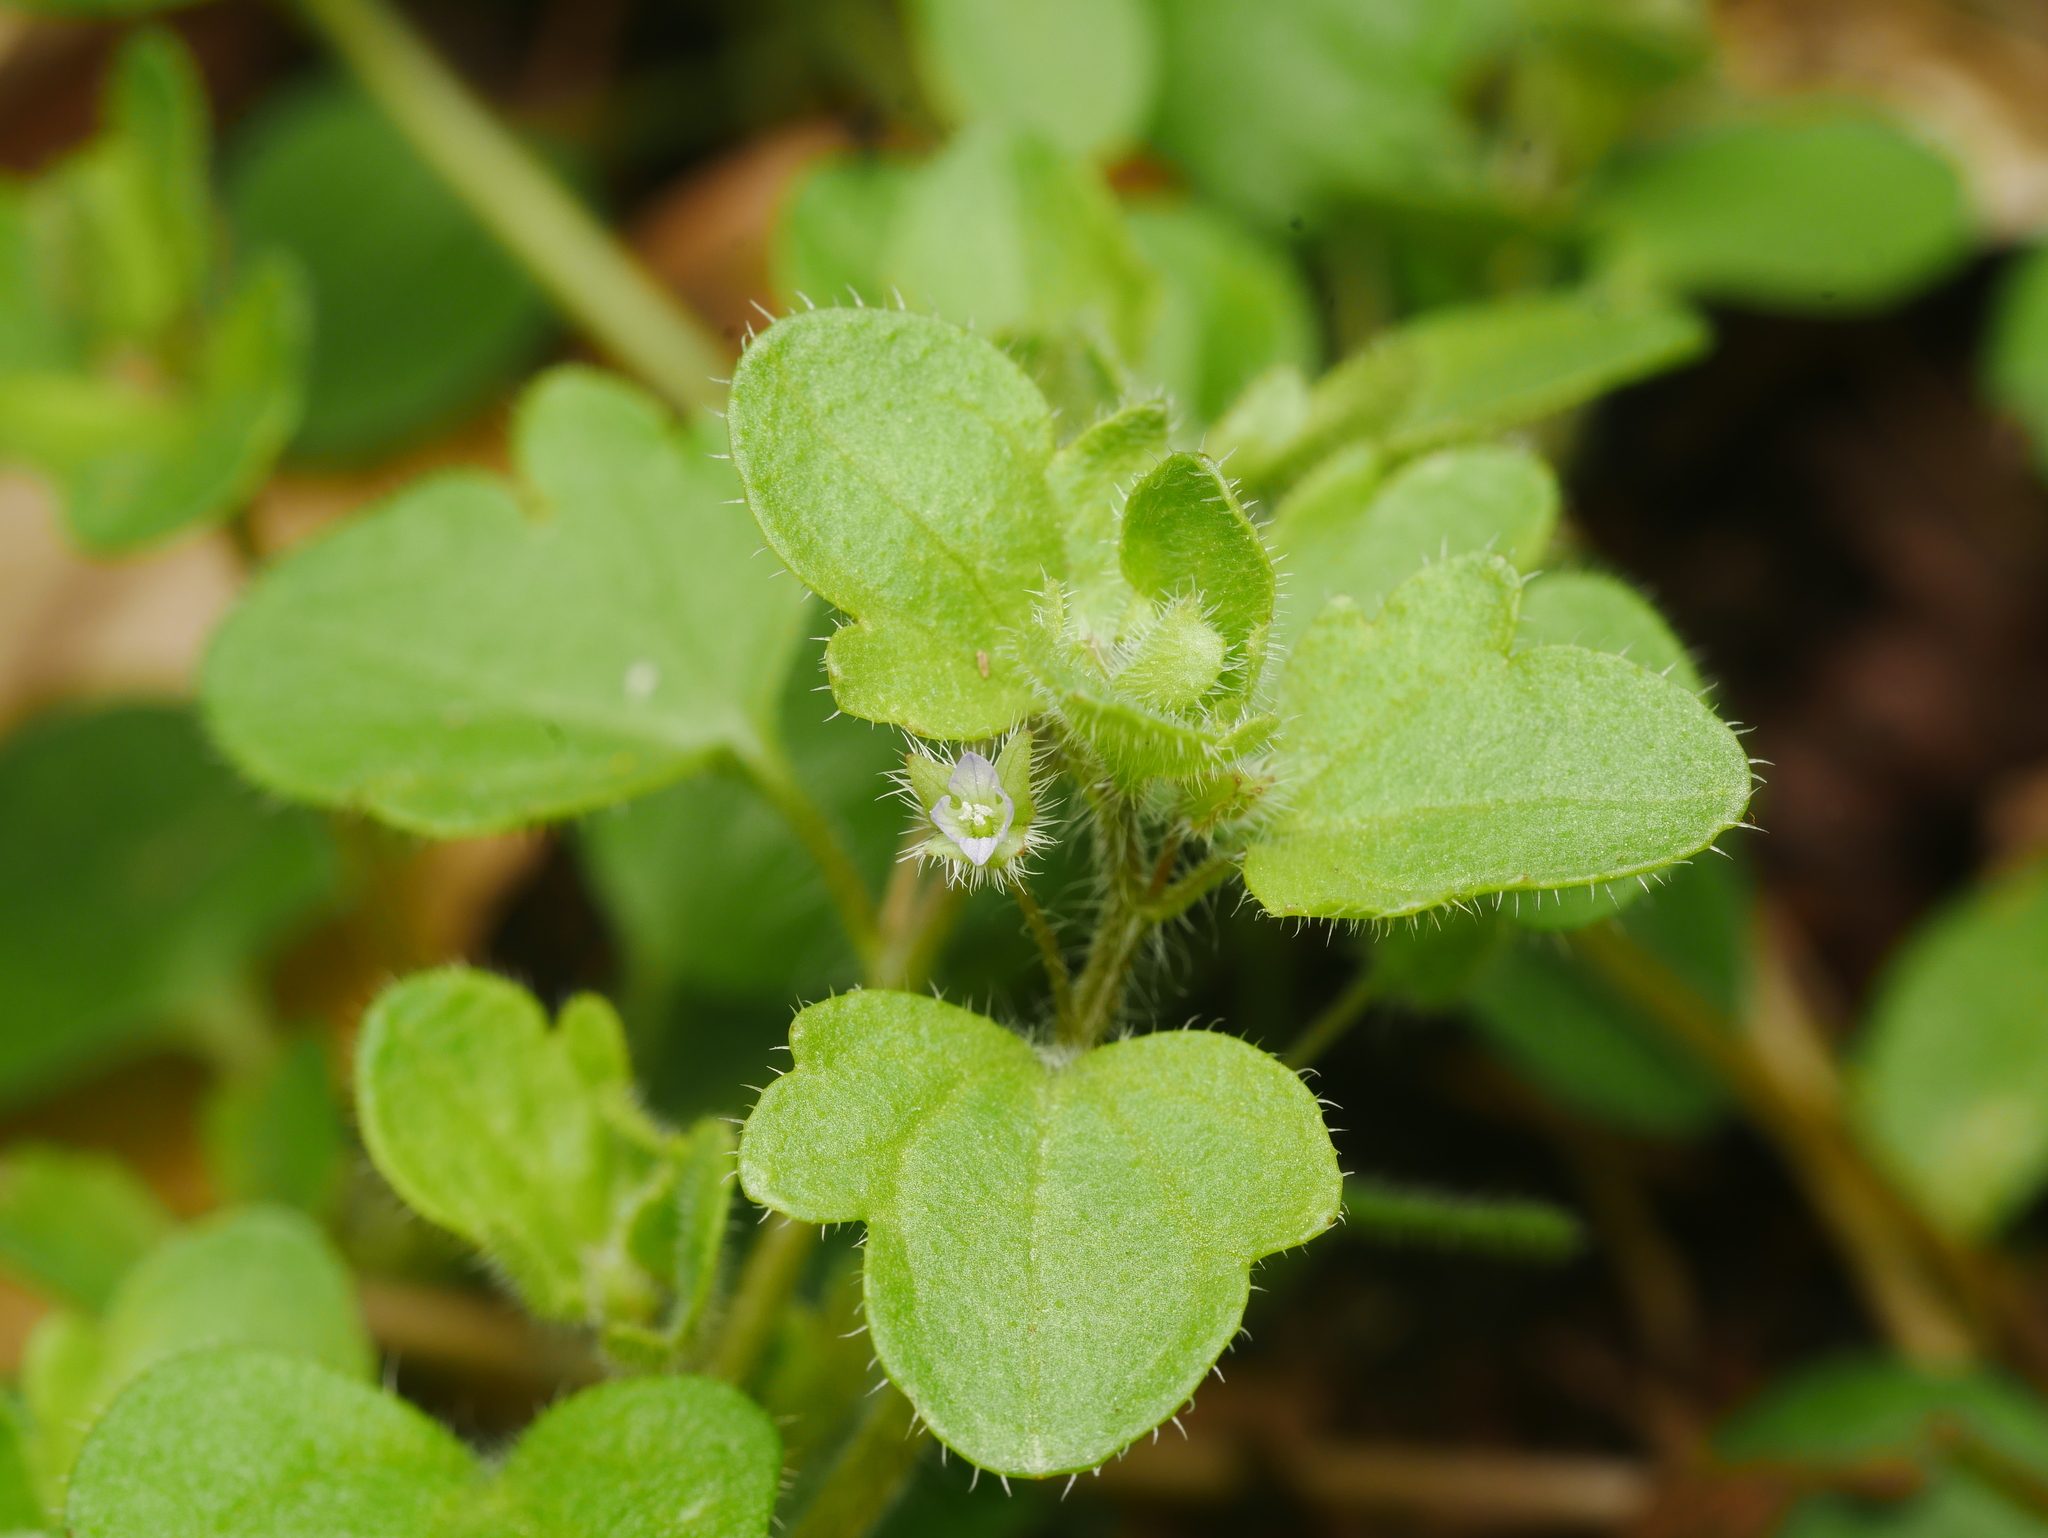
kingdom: Plantae
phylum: Tracheophyta
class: Magnoliopsida
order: Lamiales
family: Plantaginaceae
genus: Veronica
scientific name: Veronica sublobata
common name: False ivy-leaved speedwell
